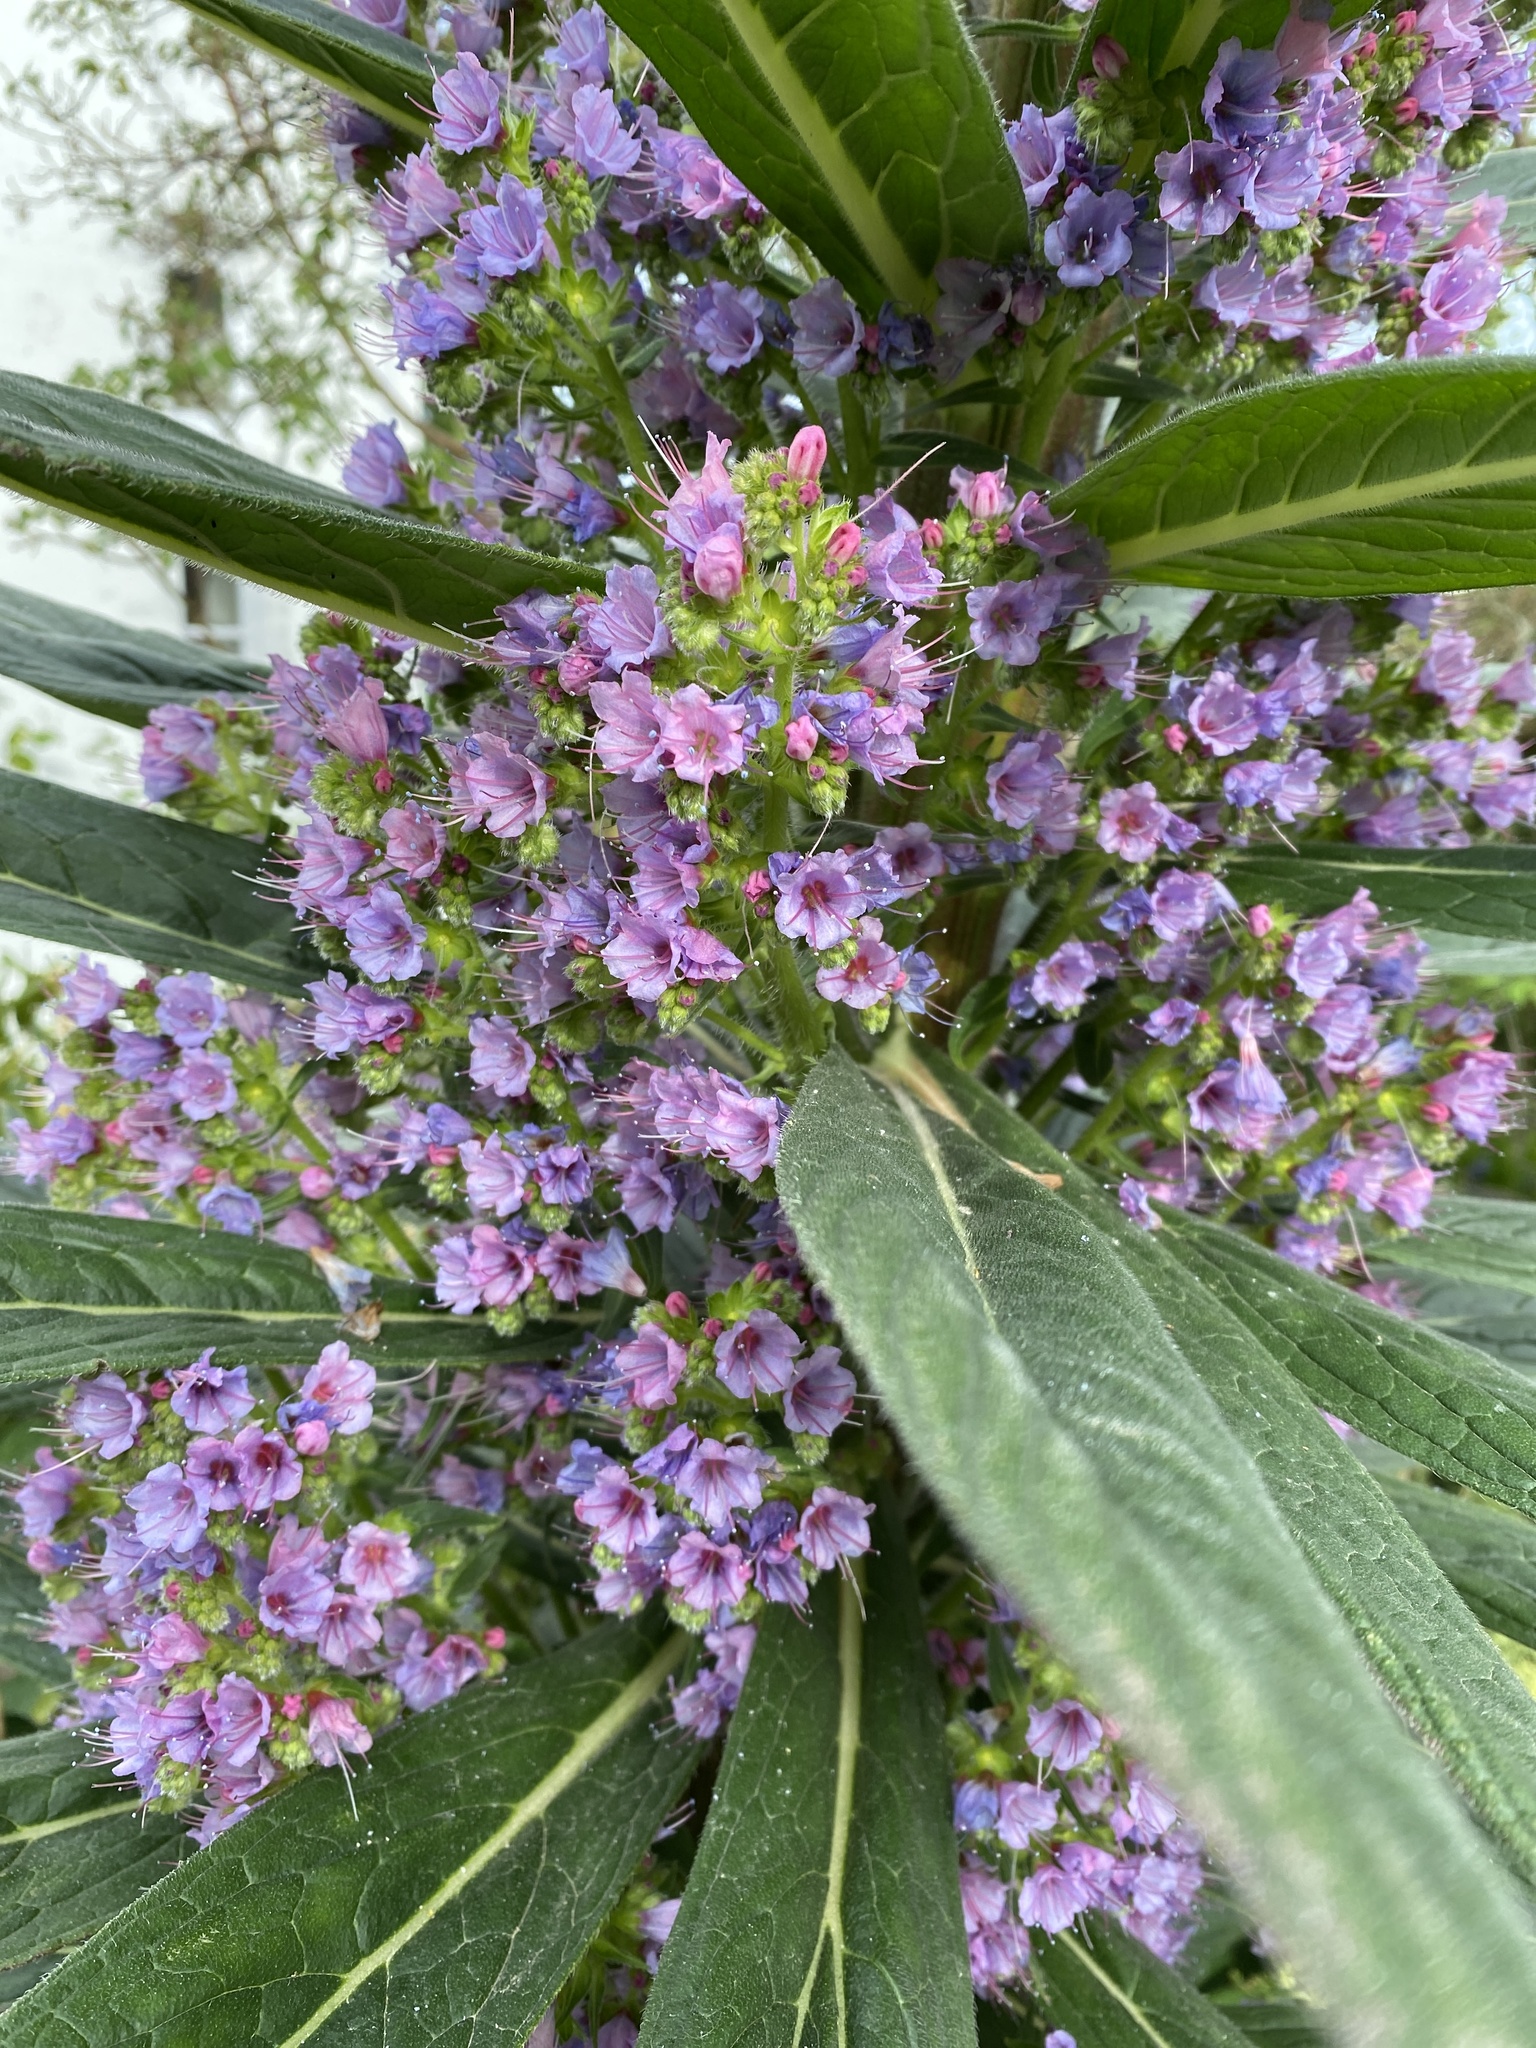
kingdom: Plantae
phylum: Tracheophyta
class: Magnoliopsida
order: Boraginales
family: Boraginaceae
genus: Echium
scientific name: Echium pininana
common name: Giant viper's-bugloss
